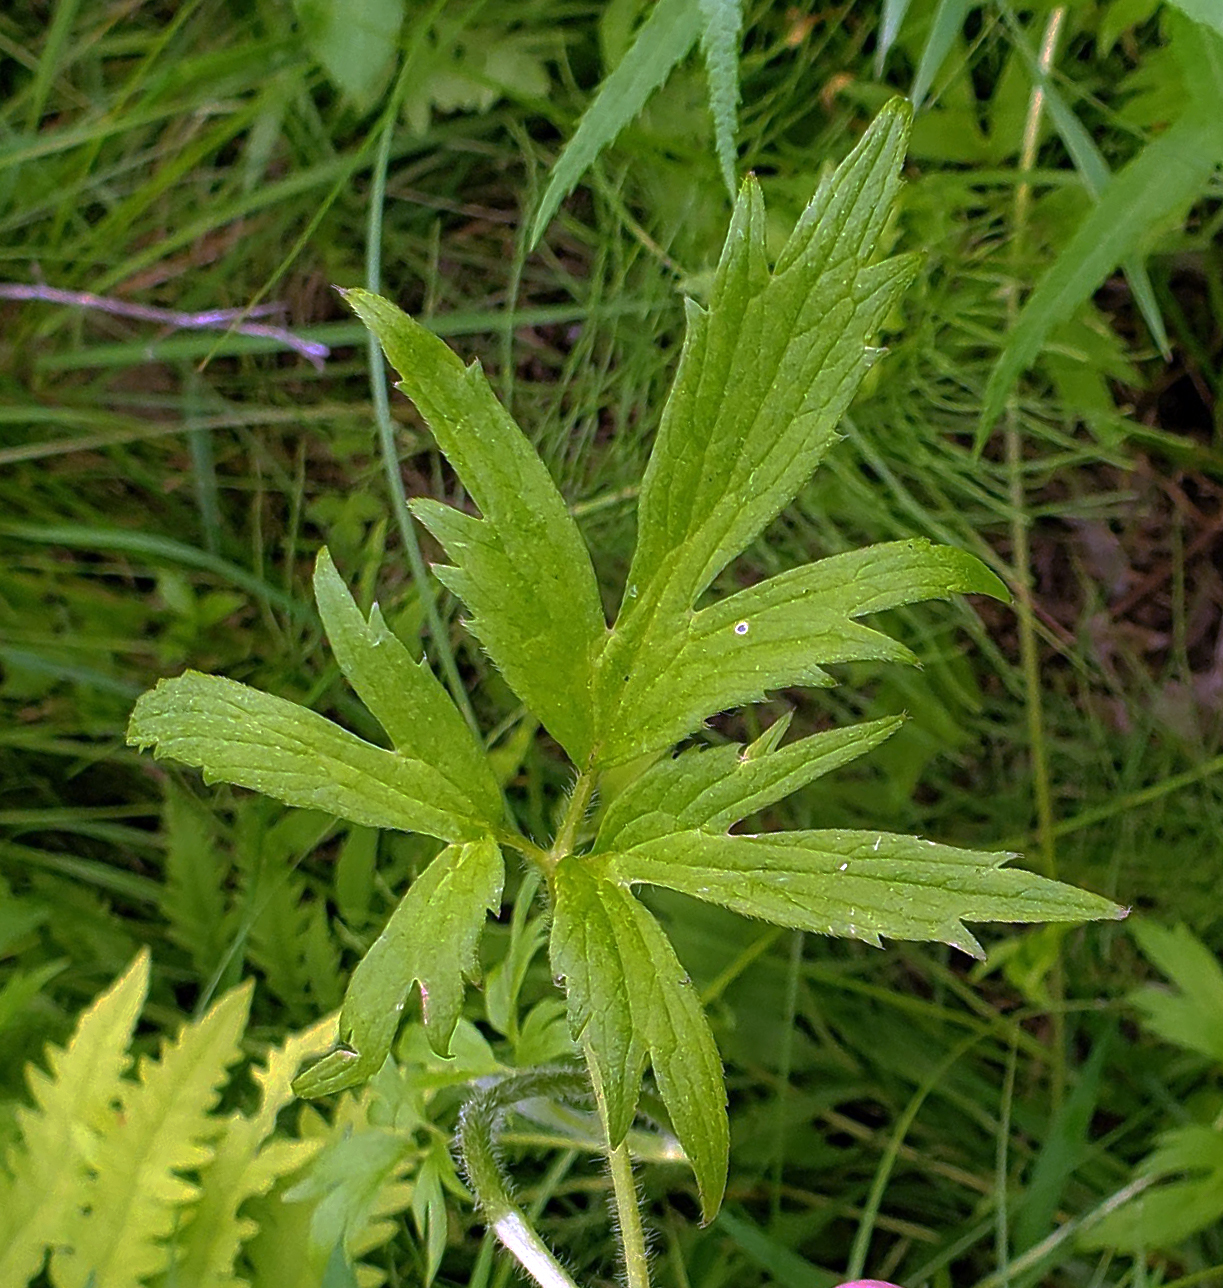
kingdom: Plantae
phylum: Tracheophyta
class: Magnoliopsida
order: Ranunculales
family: Ranunculaceae
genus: Ranunculus
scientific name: Ranunculus acris
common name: Meadow buttercup
